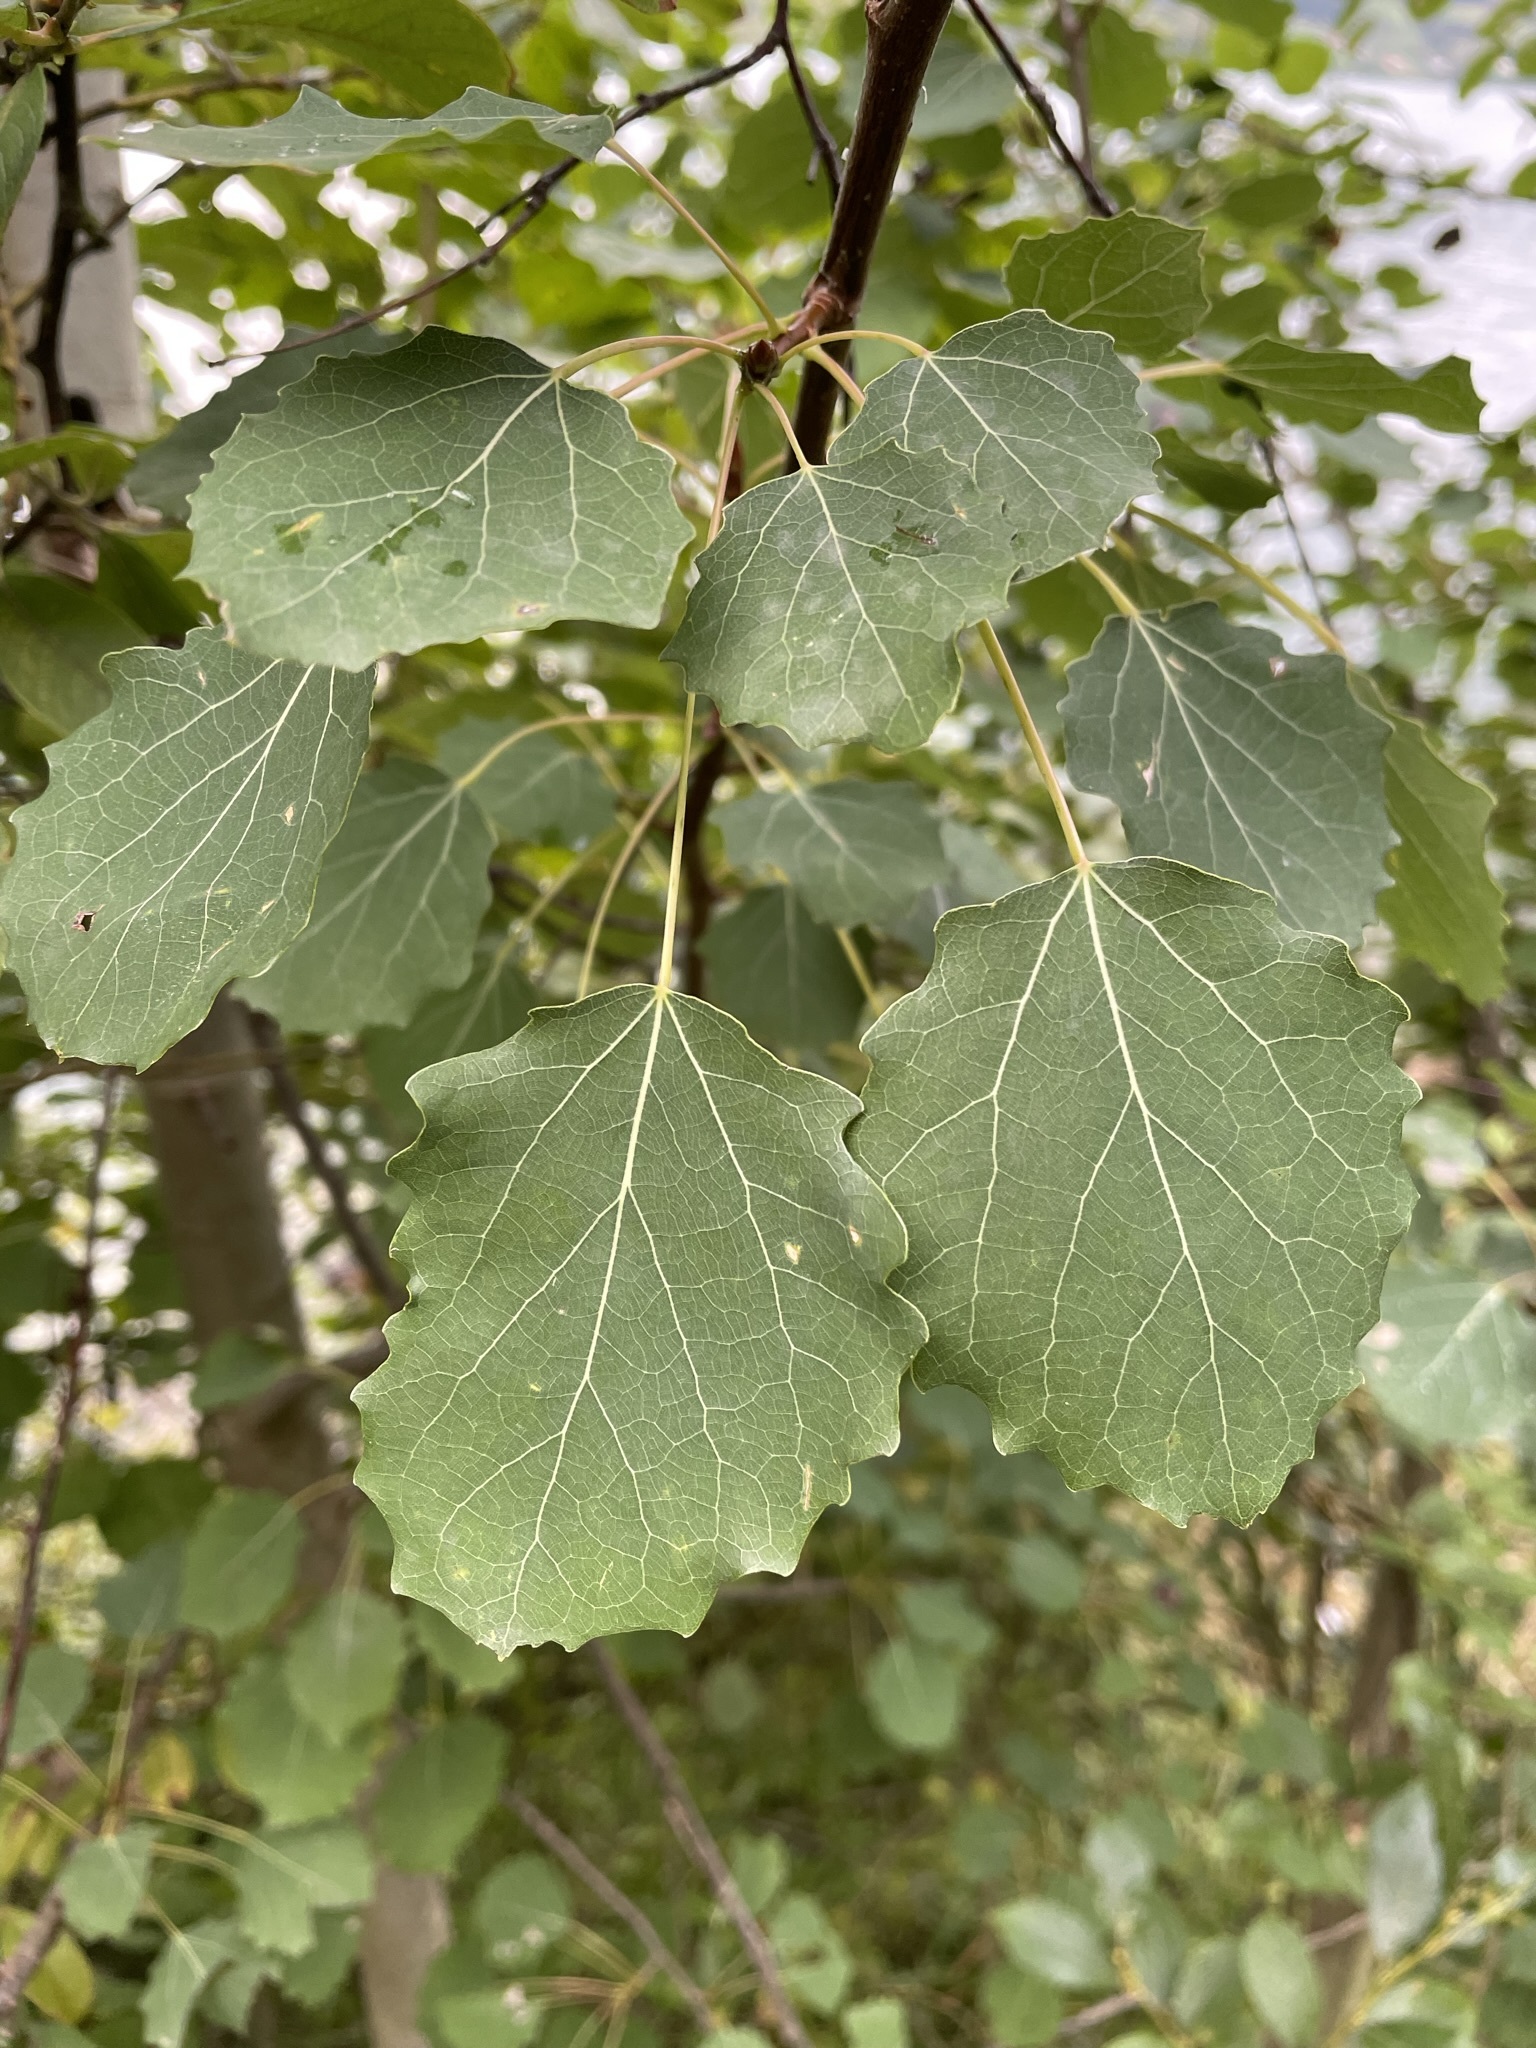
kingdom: Plantae
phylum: Tracheophyta
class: Magnoliopsida
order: Malpighiales
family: Salicaceae
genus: Populus
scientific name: Populus tremula
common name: European aspen
